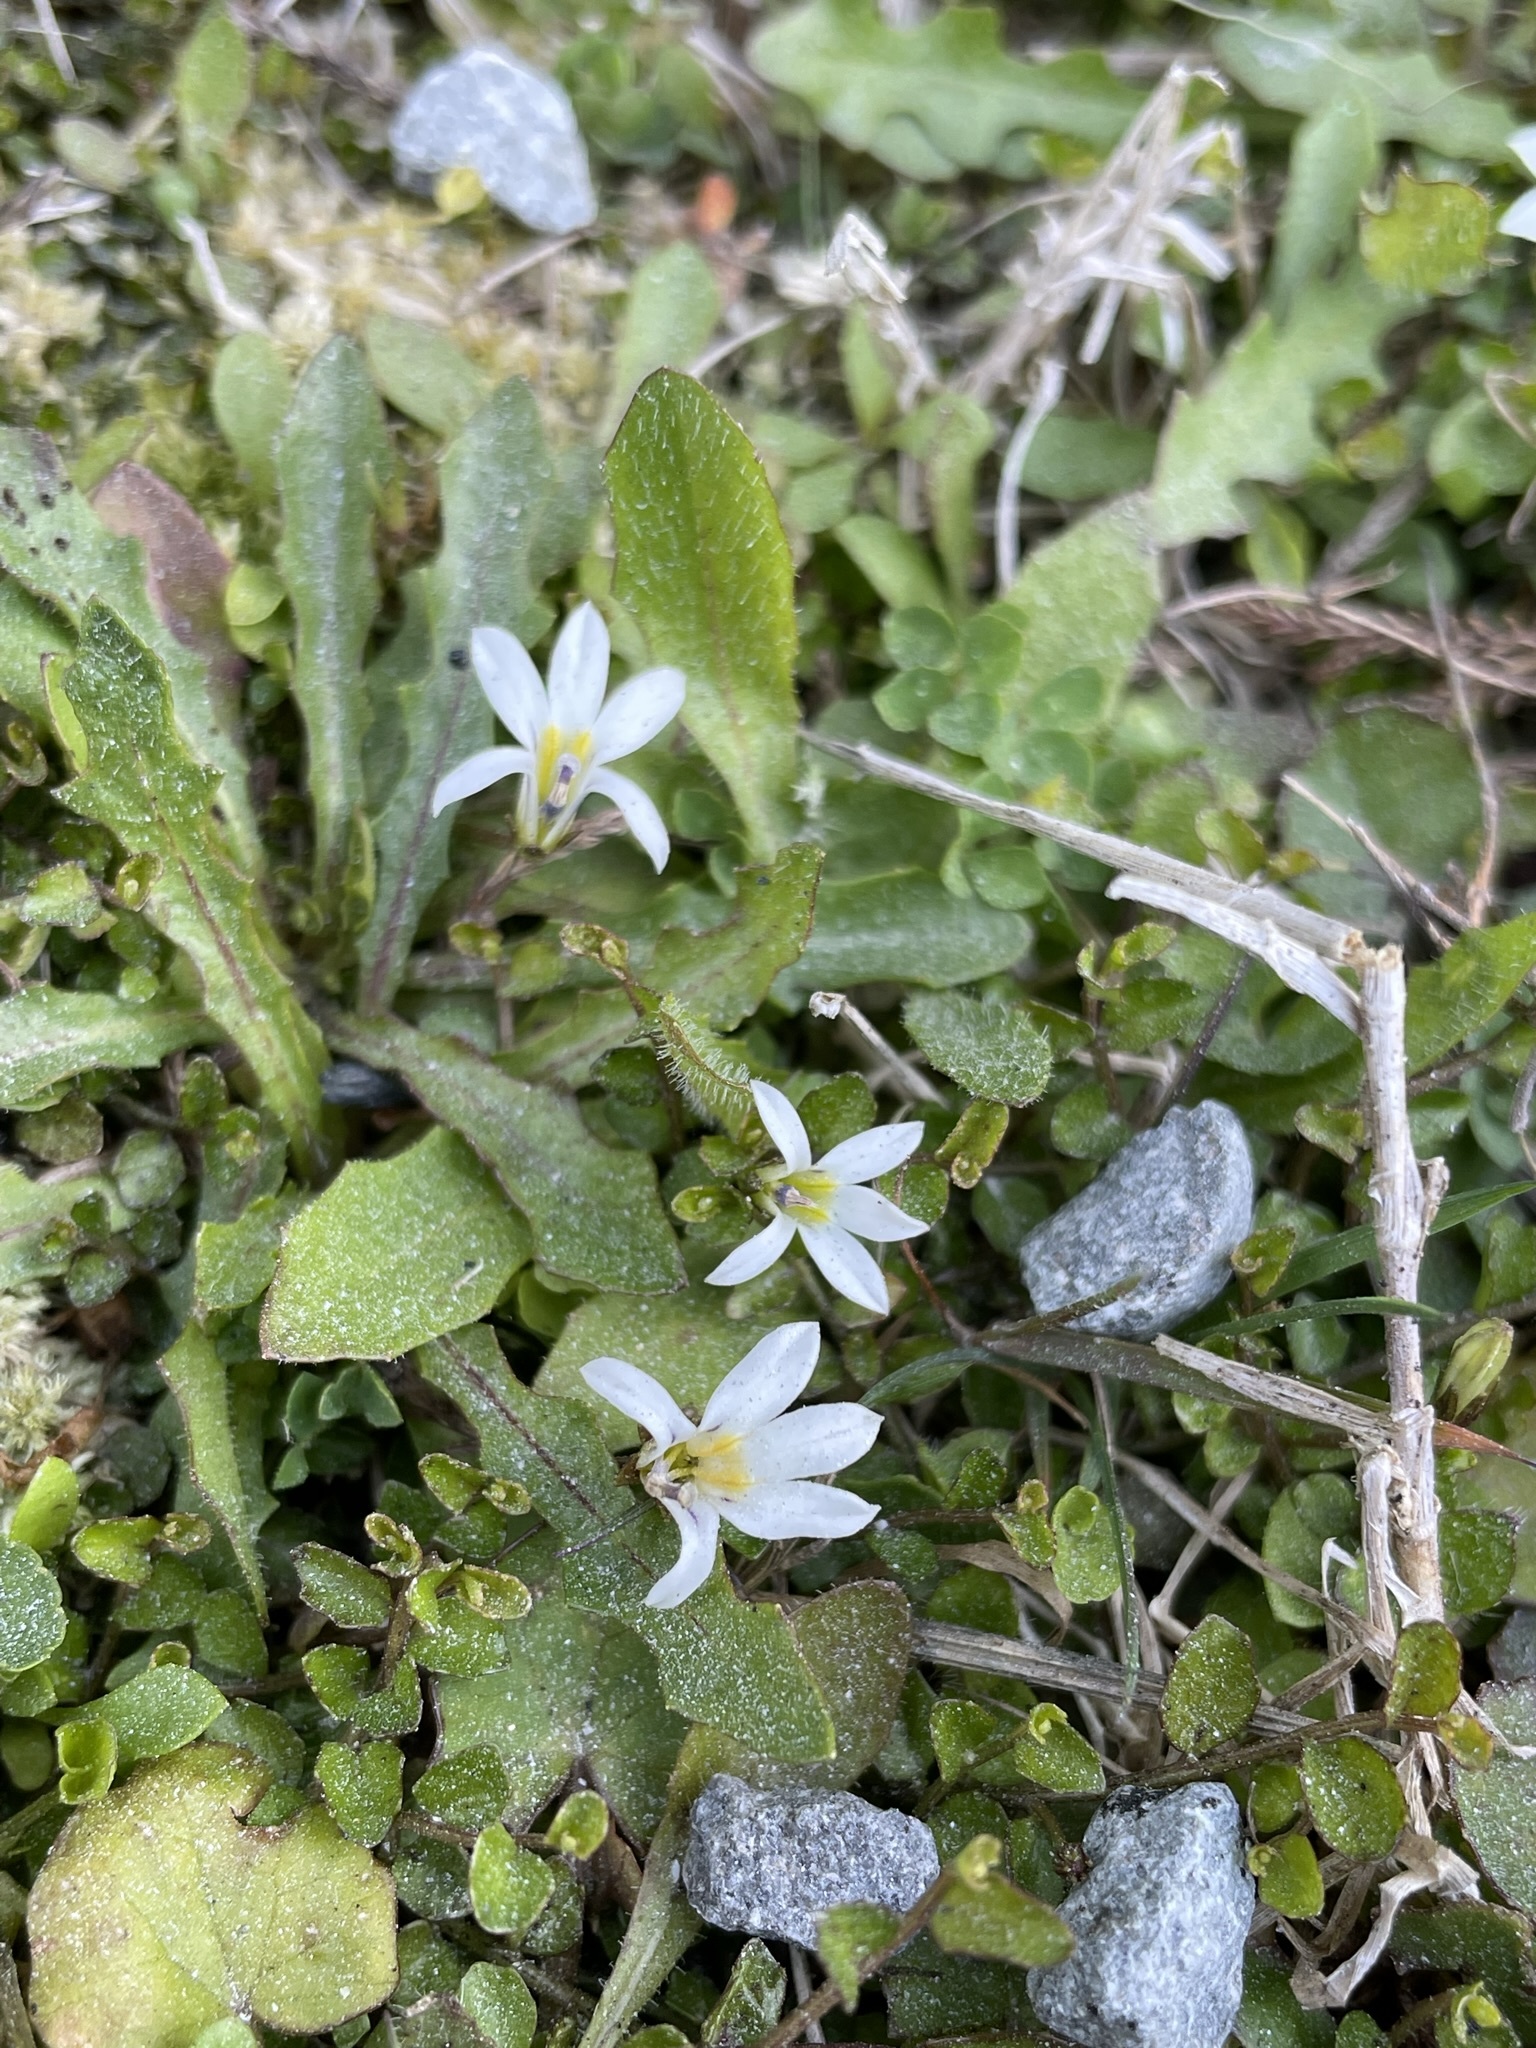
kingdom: Plantae
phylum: Tracheophyta
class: Magnoliopsida
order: Asterales
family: Campanulaceae
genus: Lobelia
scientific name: Lobelia angulata
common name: Lawn lobelia
